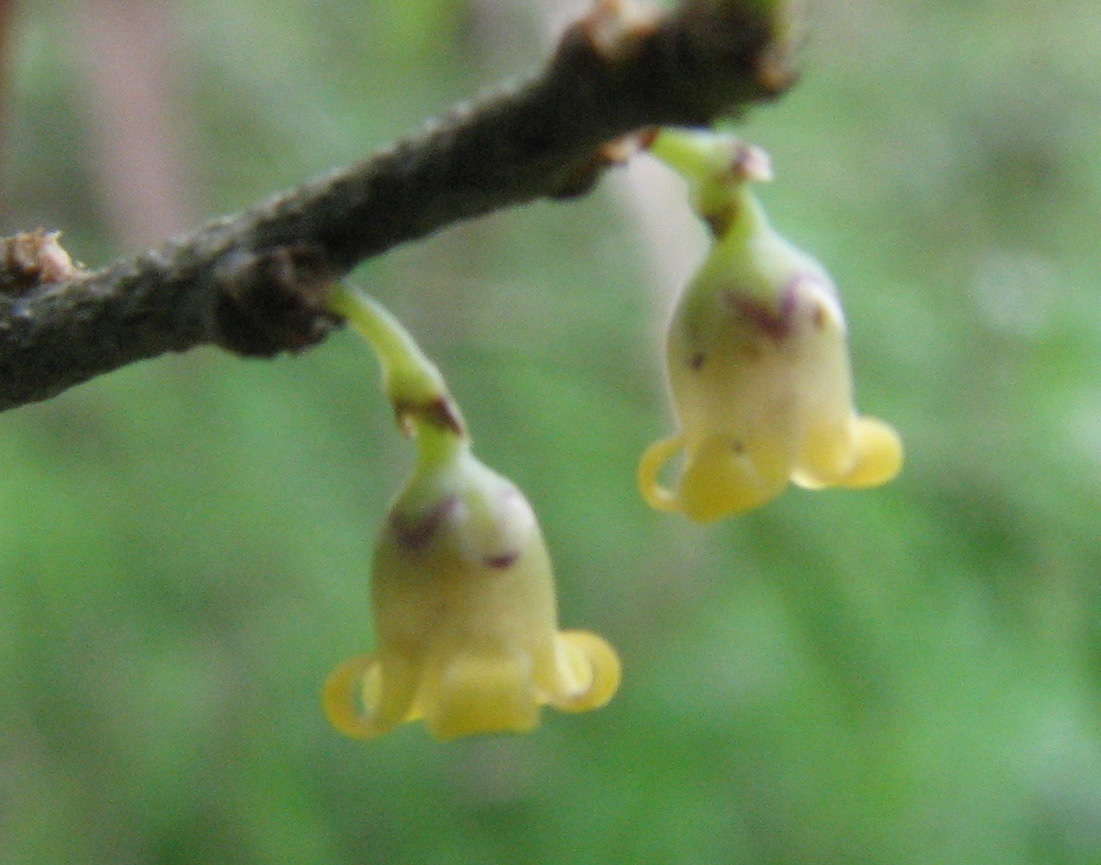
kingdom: Plantae
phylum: Tracheophyta
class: Magnoliopsida
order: Malpighiales
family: Violaceae
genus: Melicytus
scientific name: Melicytus dentatus
